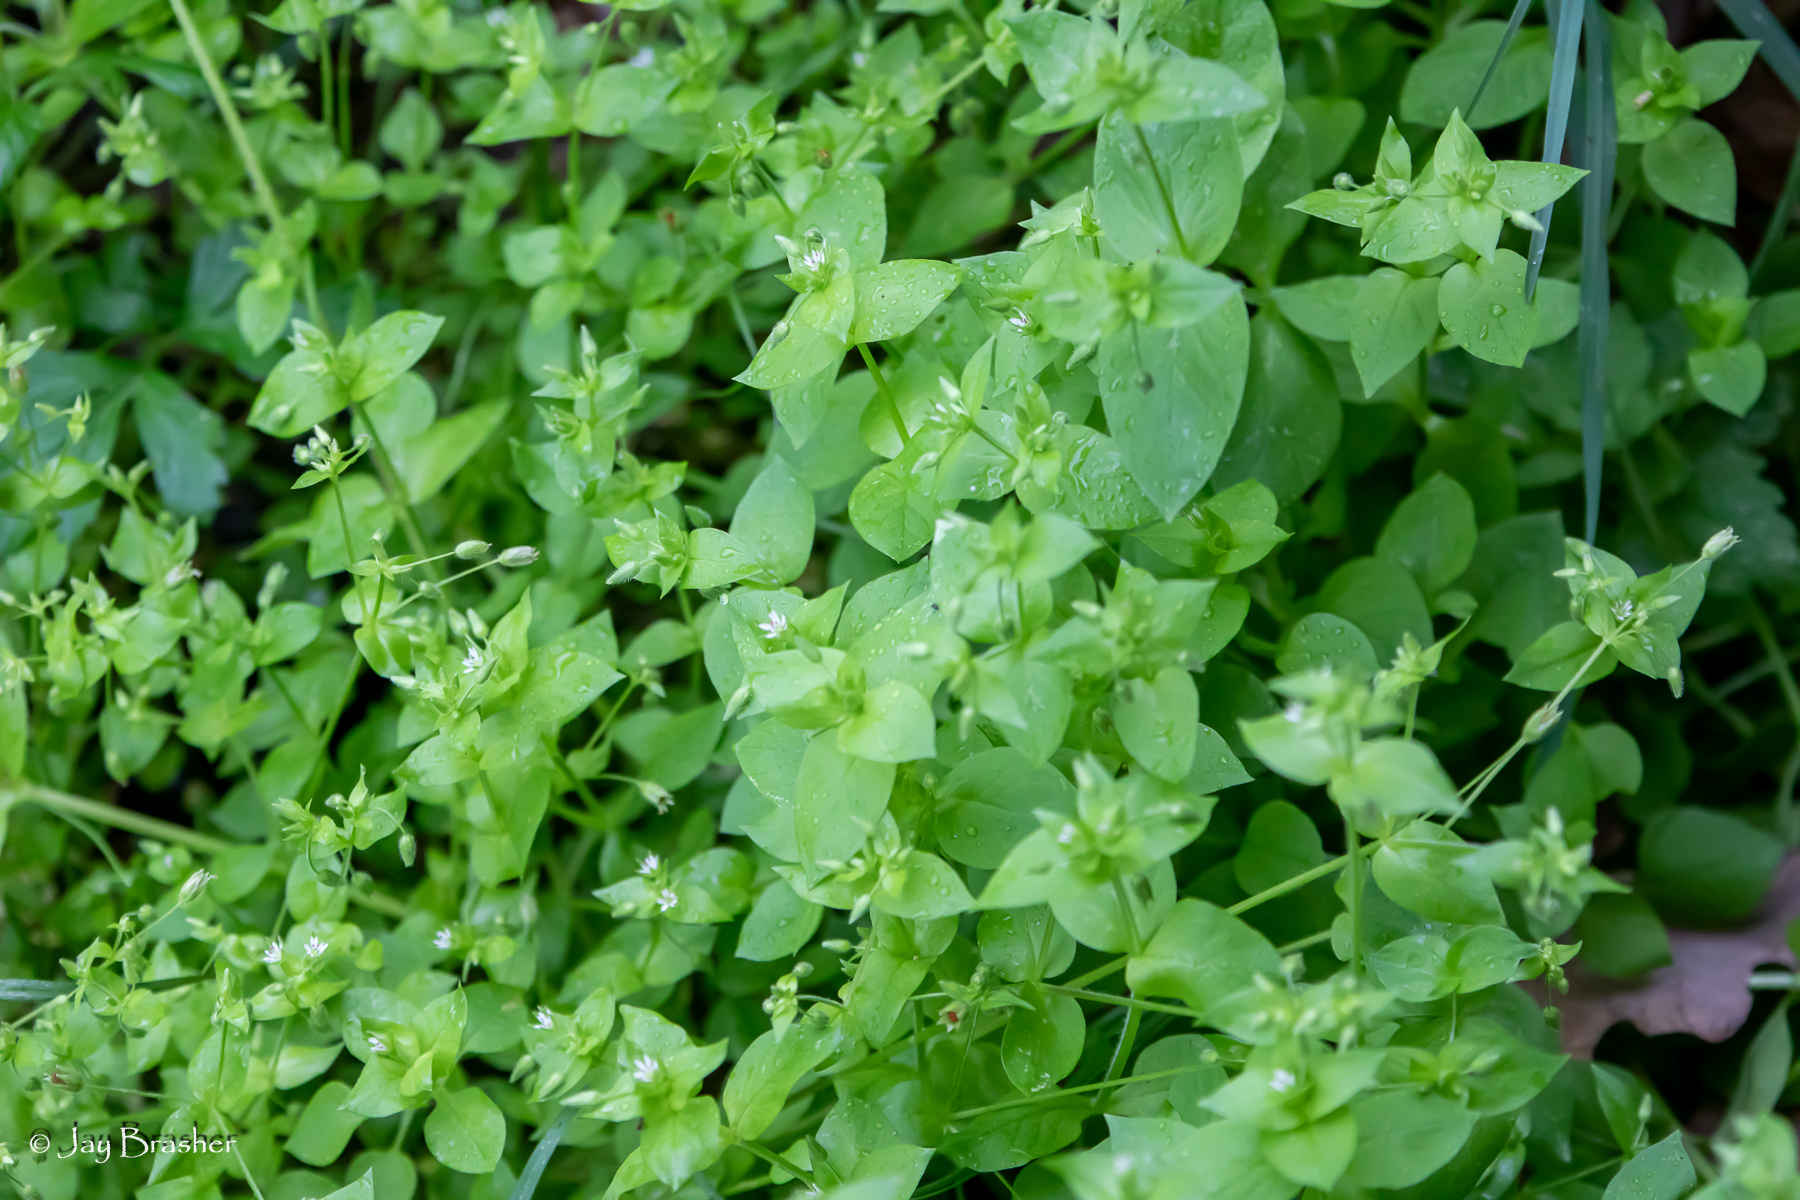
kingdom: Plantae
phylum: Tracheophyta
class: Magnoliopsida
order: Caryophyllales
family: Caryophyllaceae
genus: Stellaria
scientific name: Stellaria media
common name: Common chickweed
